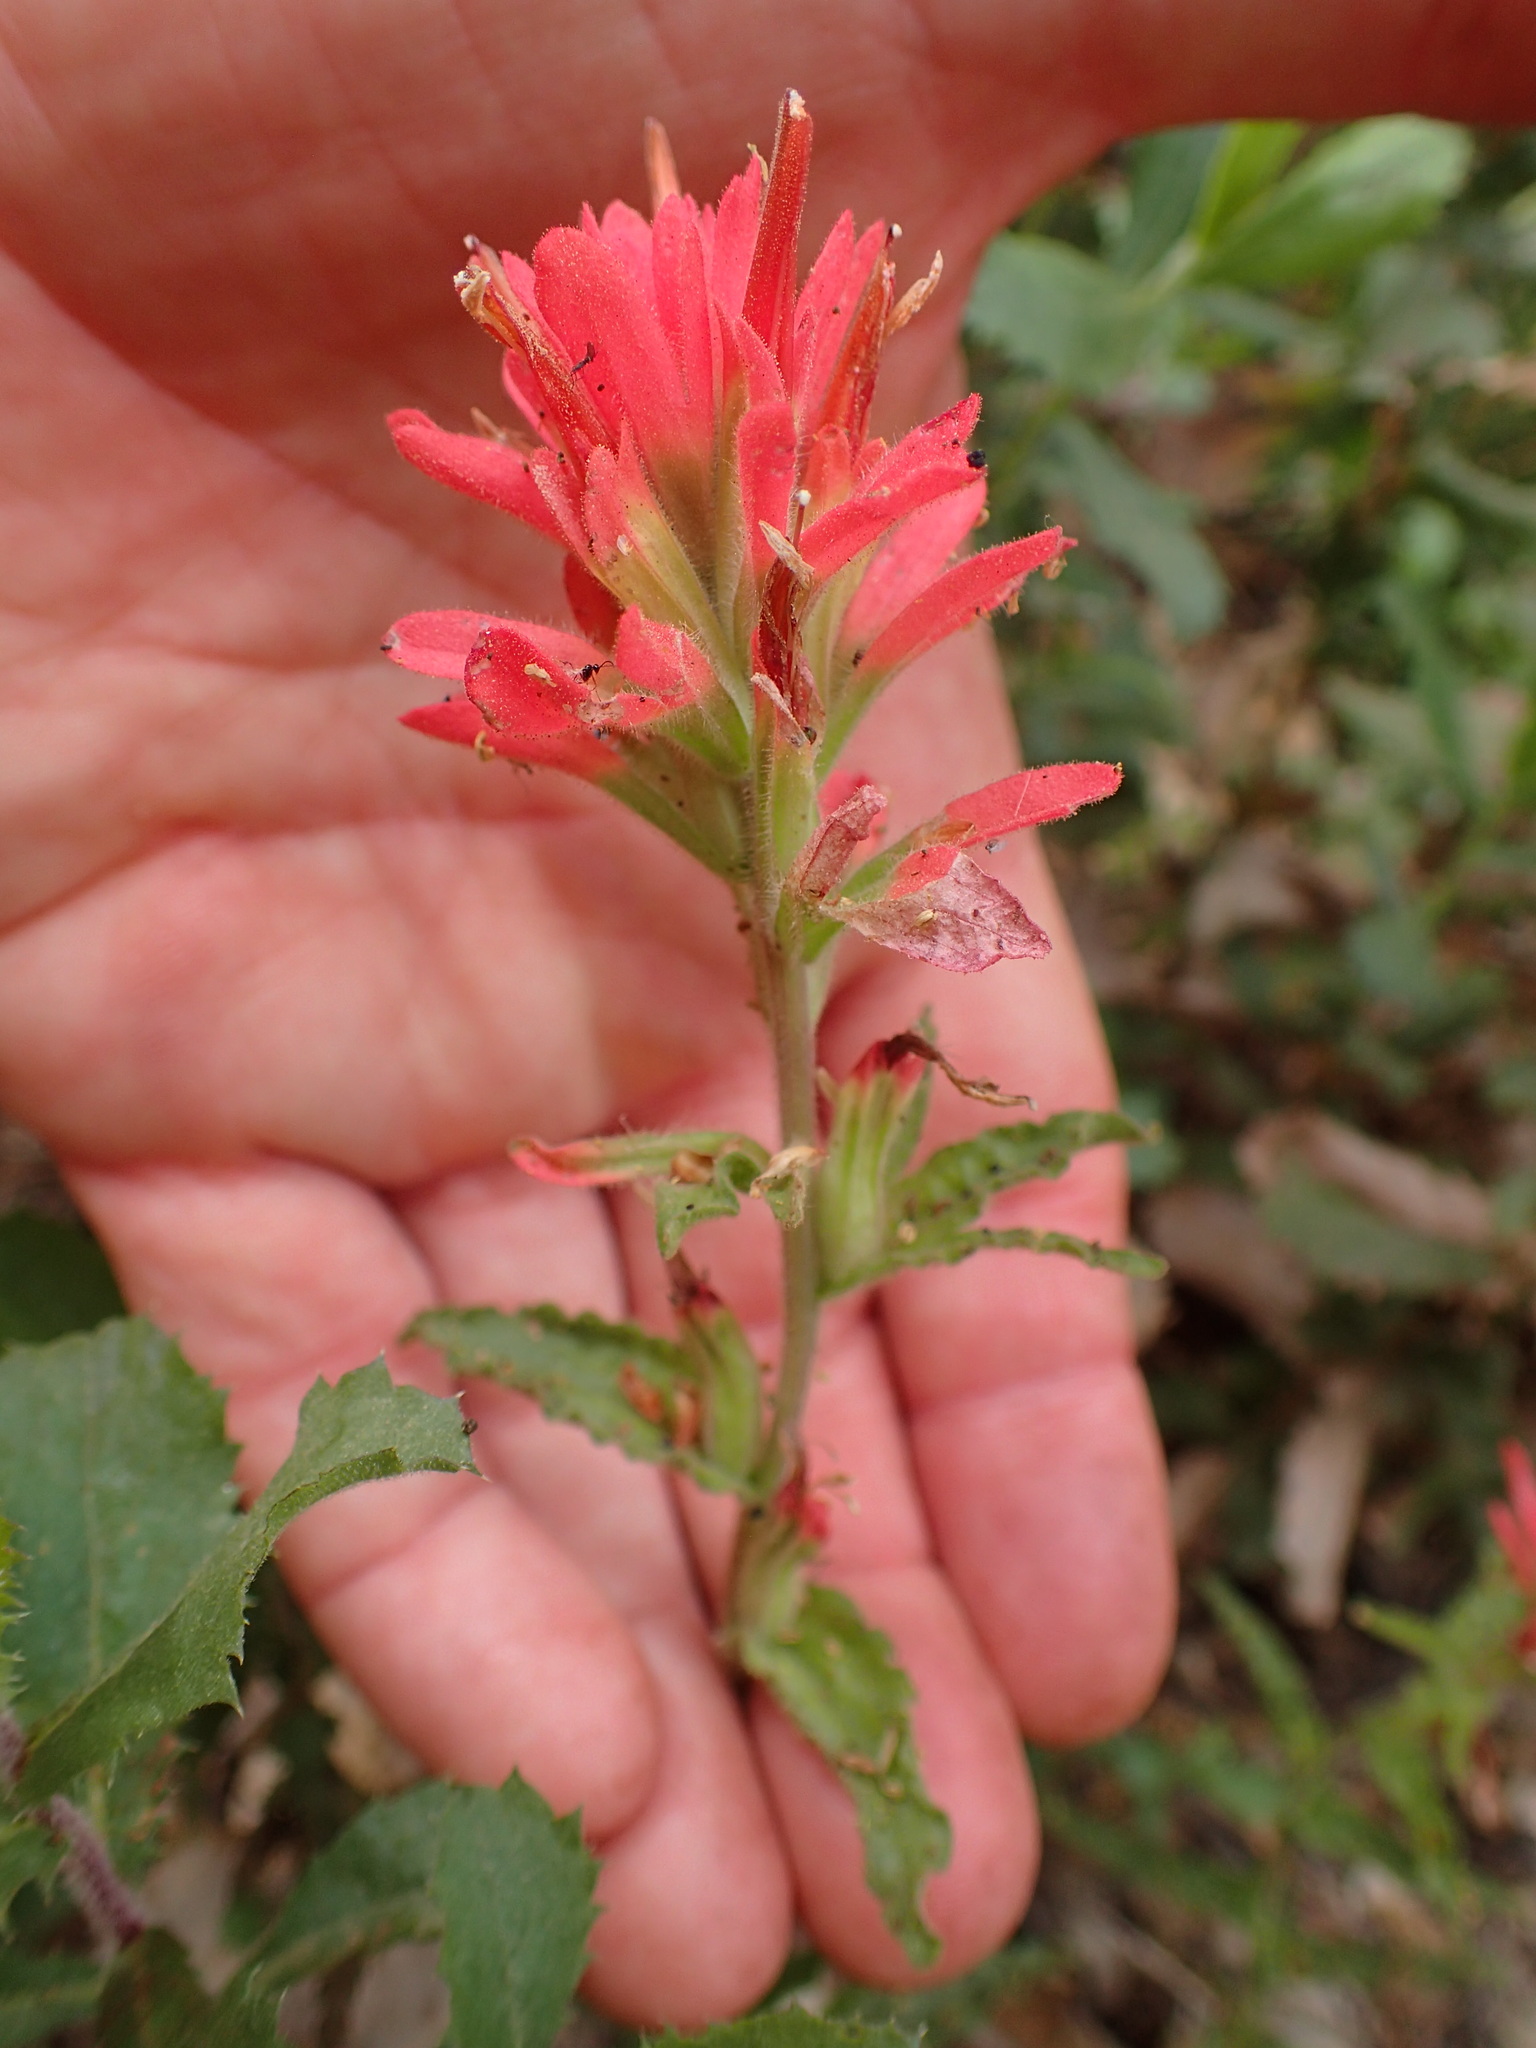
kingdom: Plantae
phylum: Tracheophyta
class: Magnoliopsida
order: Lamiales
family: Orobanchaceae
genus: Castilleja
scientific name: Castilleja affinis
